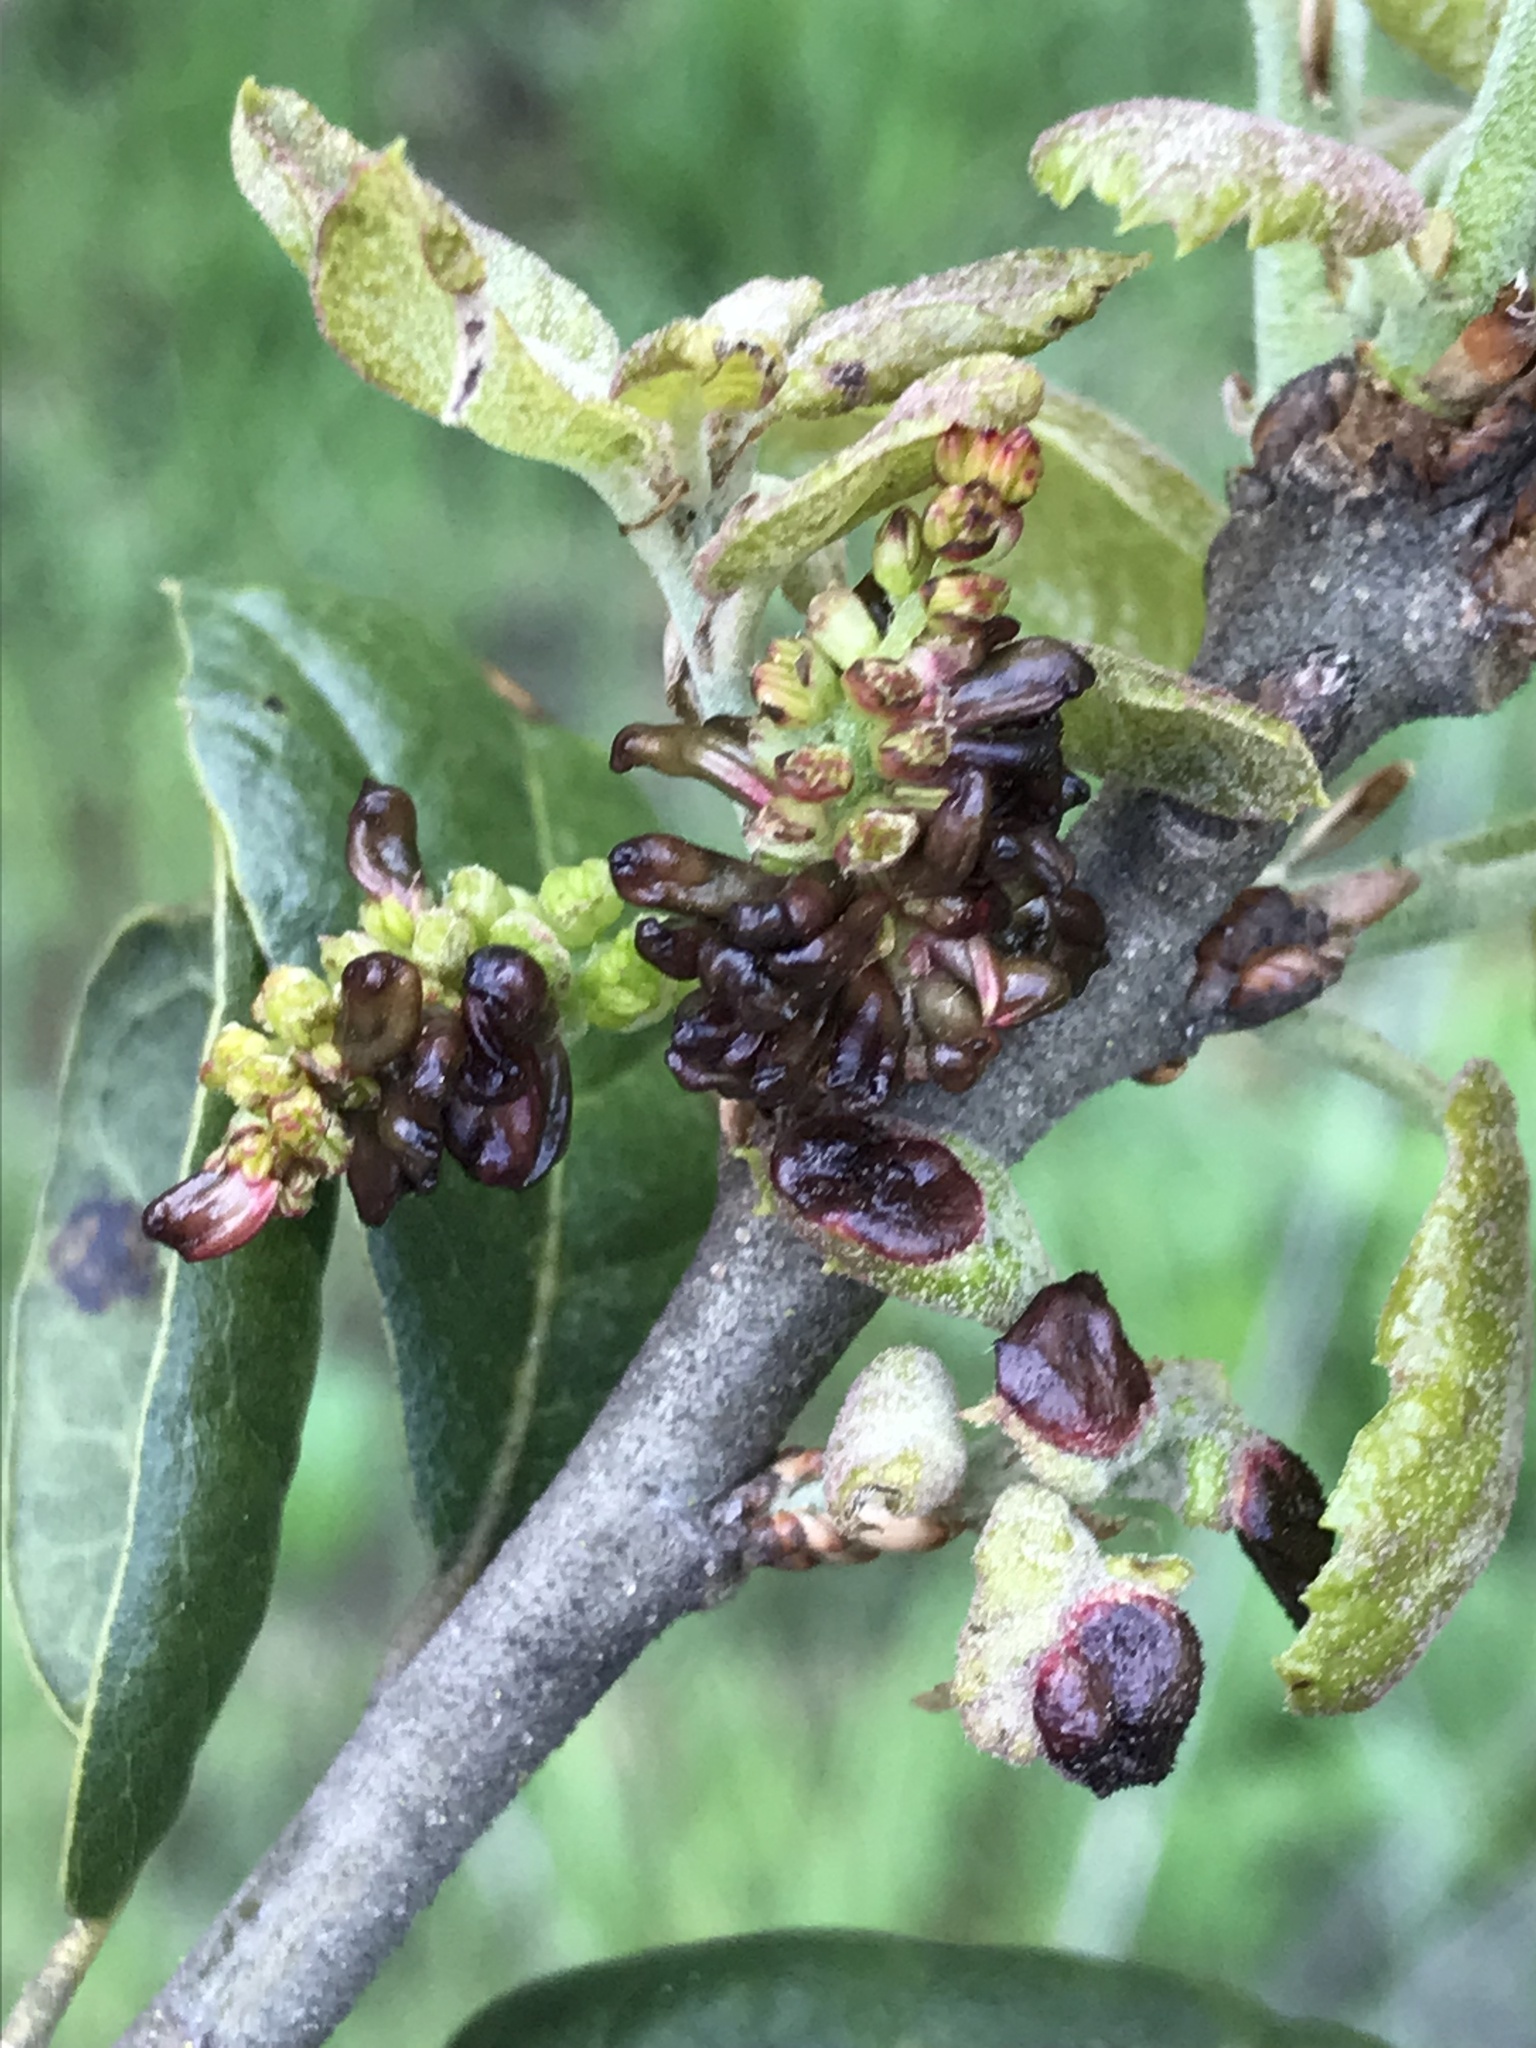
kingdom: Animalia
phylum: Arthropoda
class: Insecta
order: Hymenoptera
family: Cynipidae
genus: Dryocosmus
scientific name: Dryocosmus
